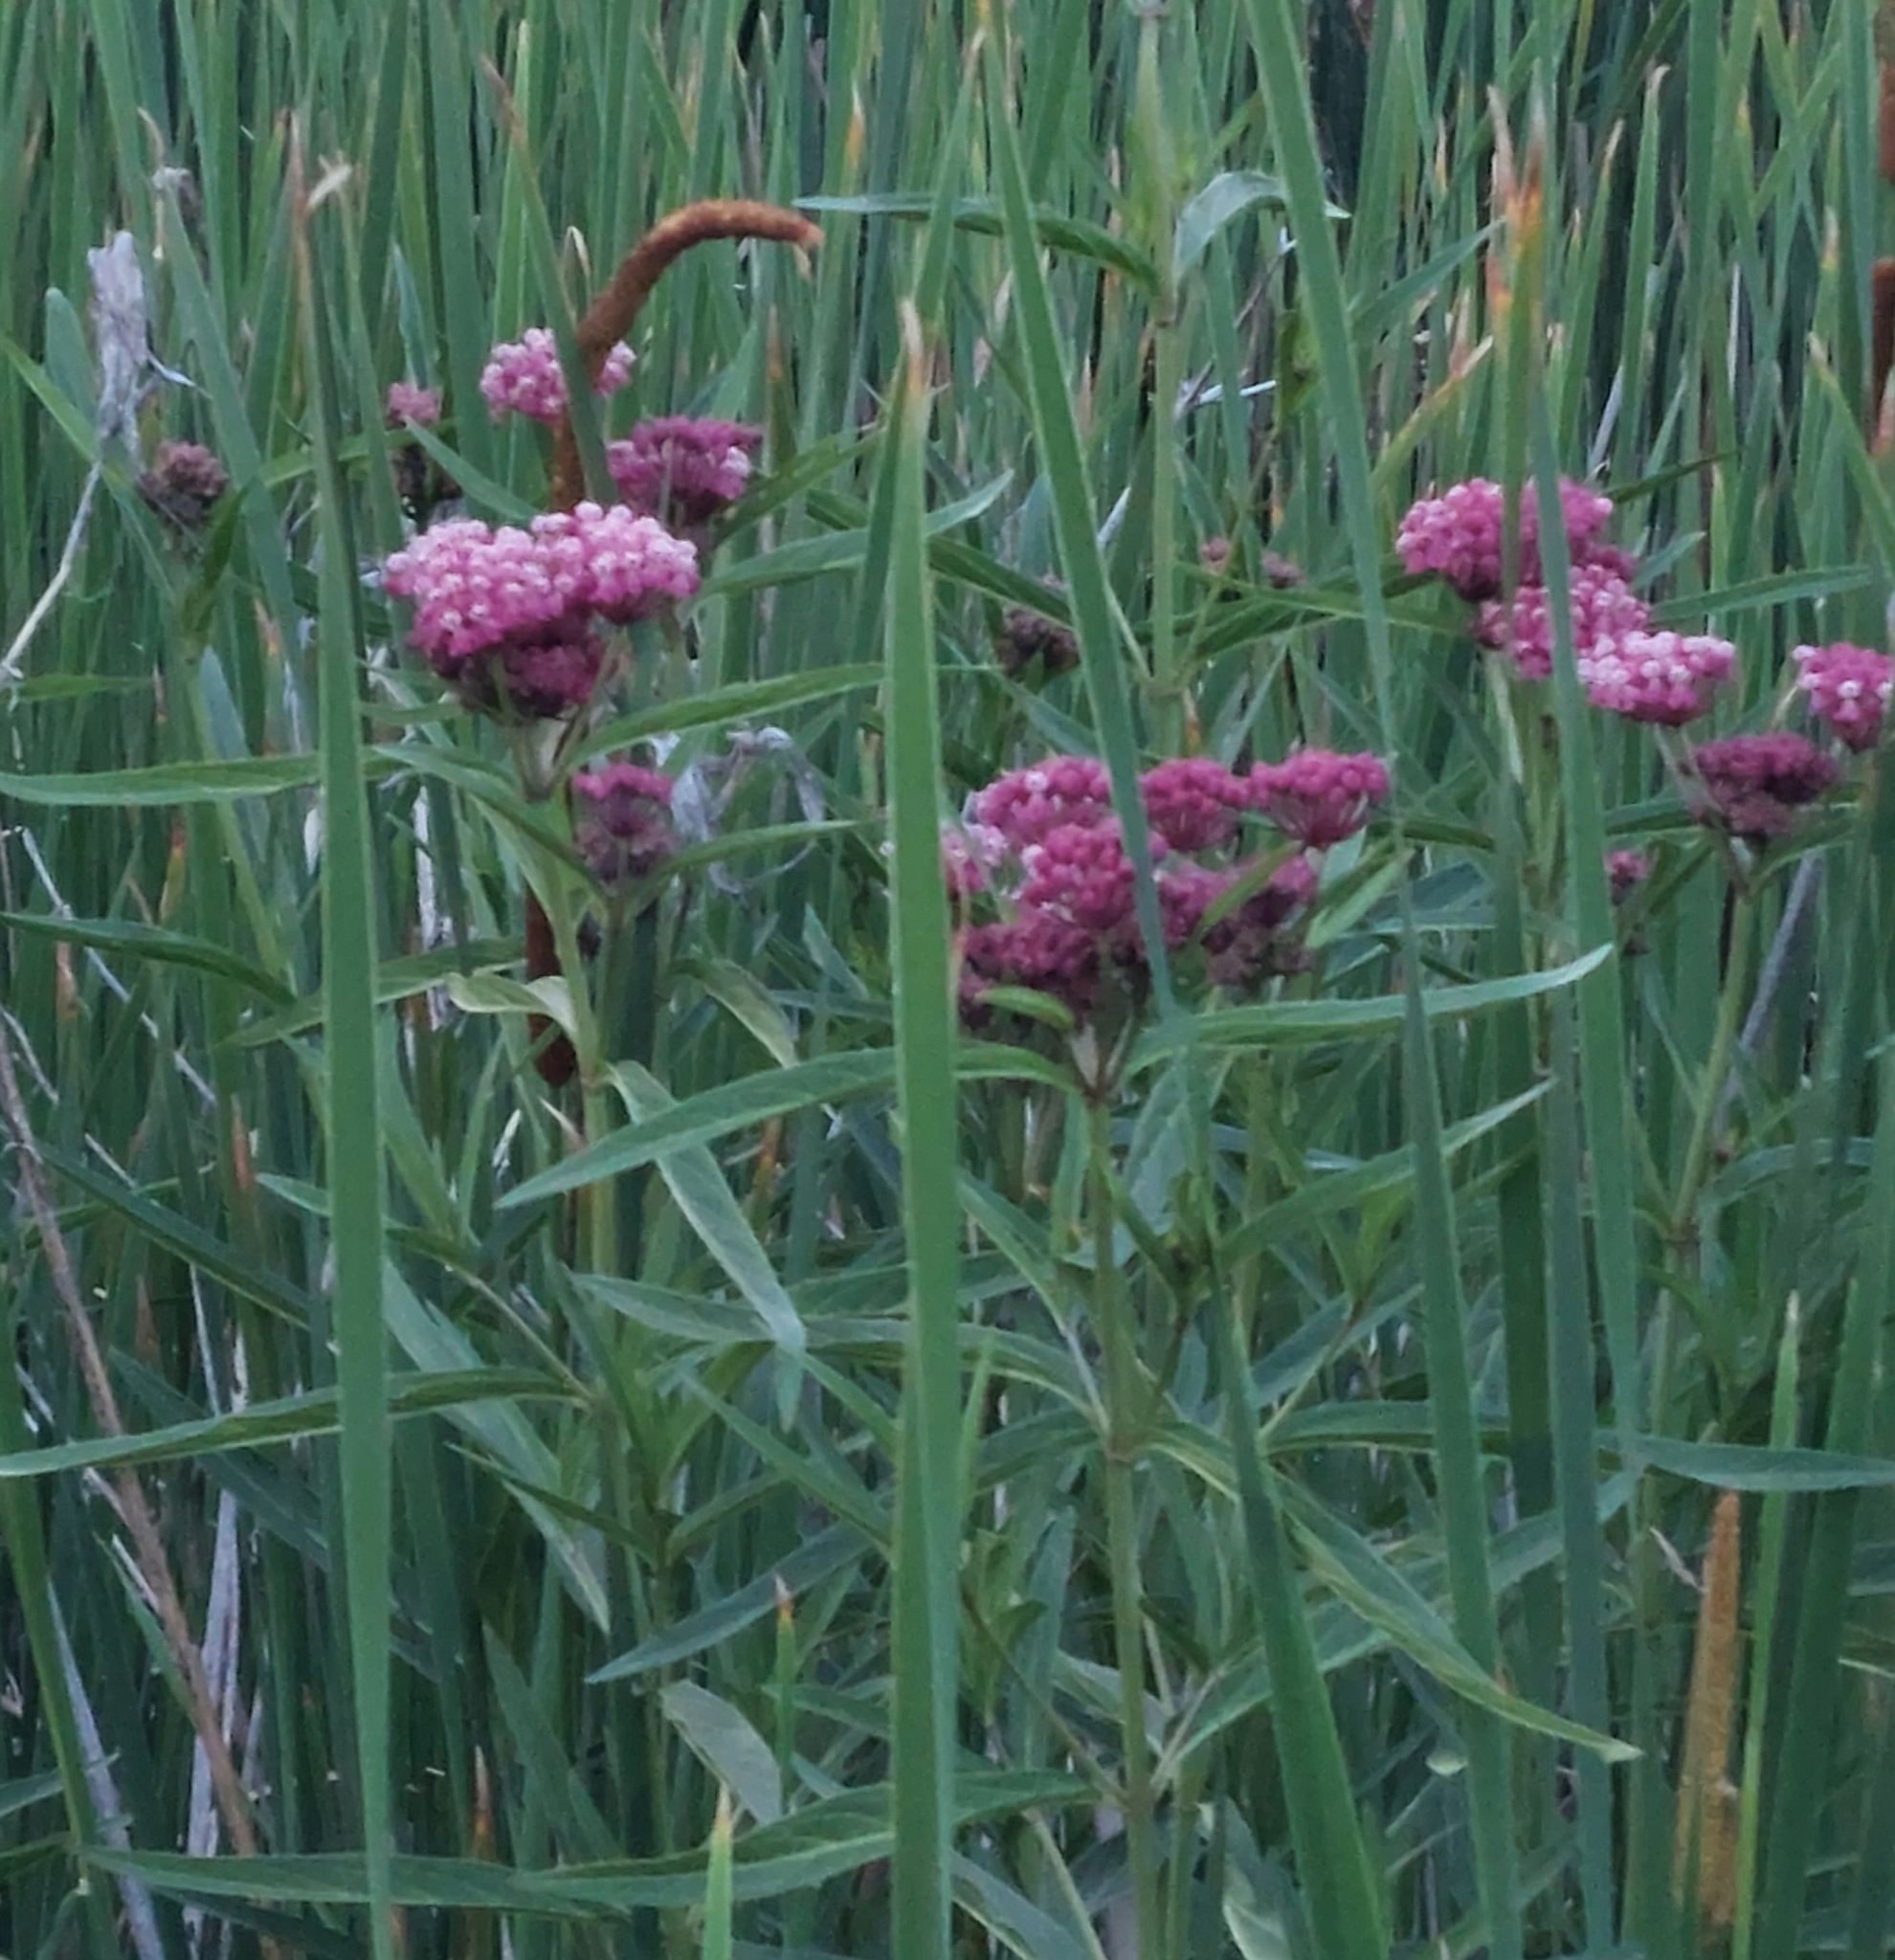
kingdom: Plantae
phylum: Tracheophyta
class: Magnoliopsida
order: Gentianales
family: Apocynaceae
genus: Asclepias
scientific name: Asclepias incarnata
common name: Swamp milkweed
